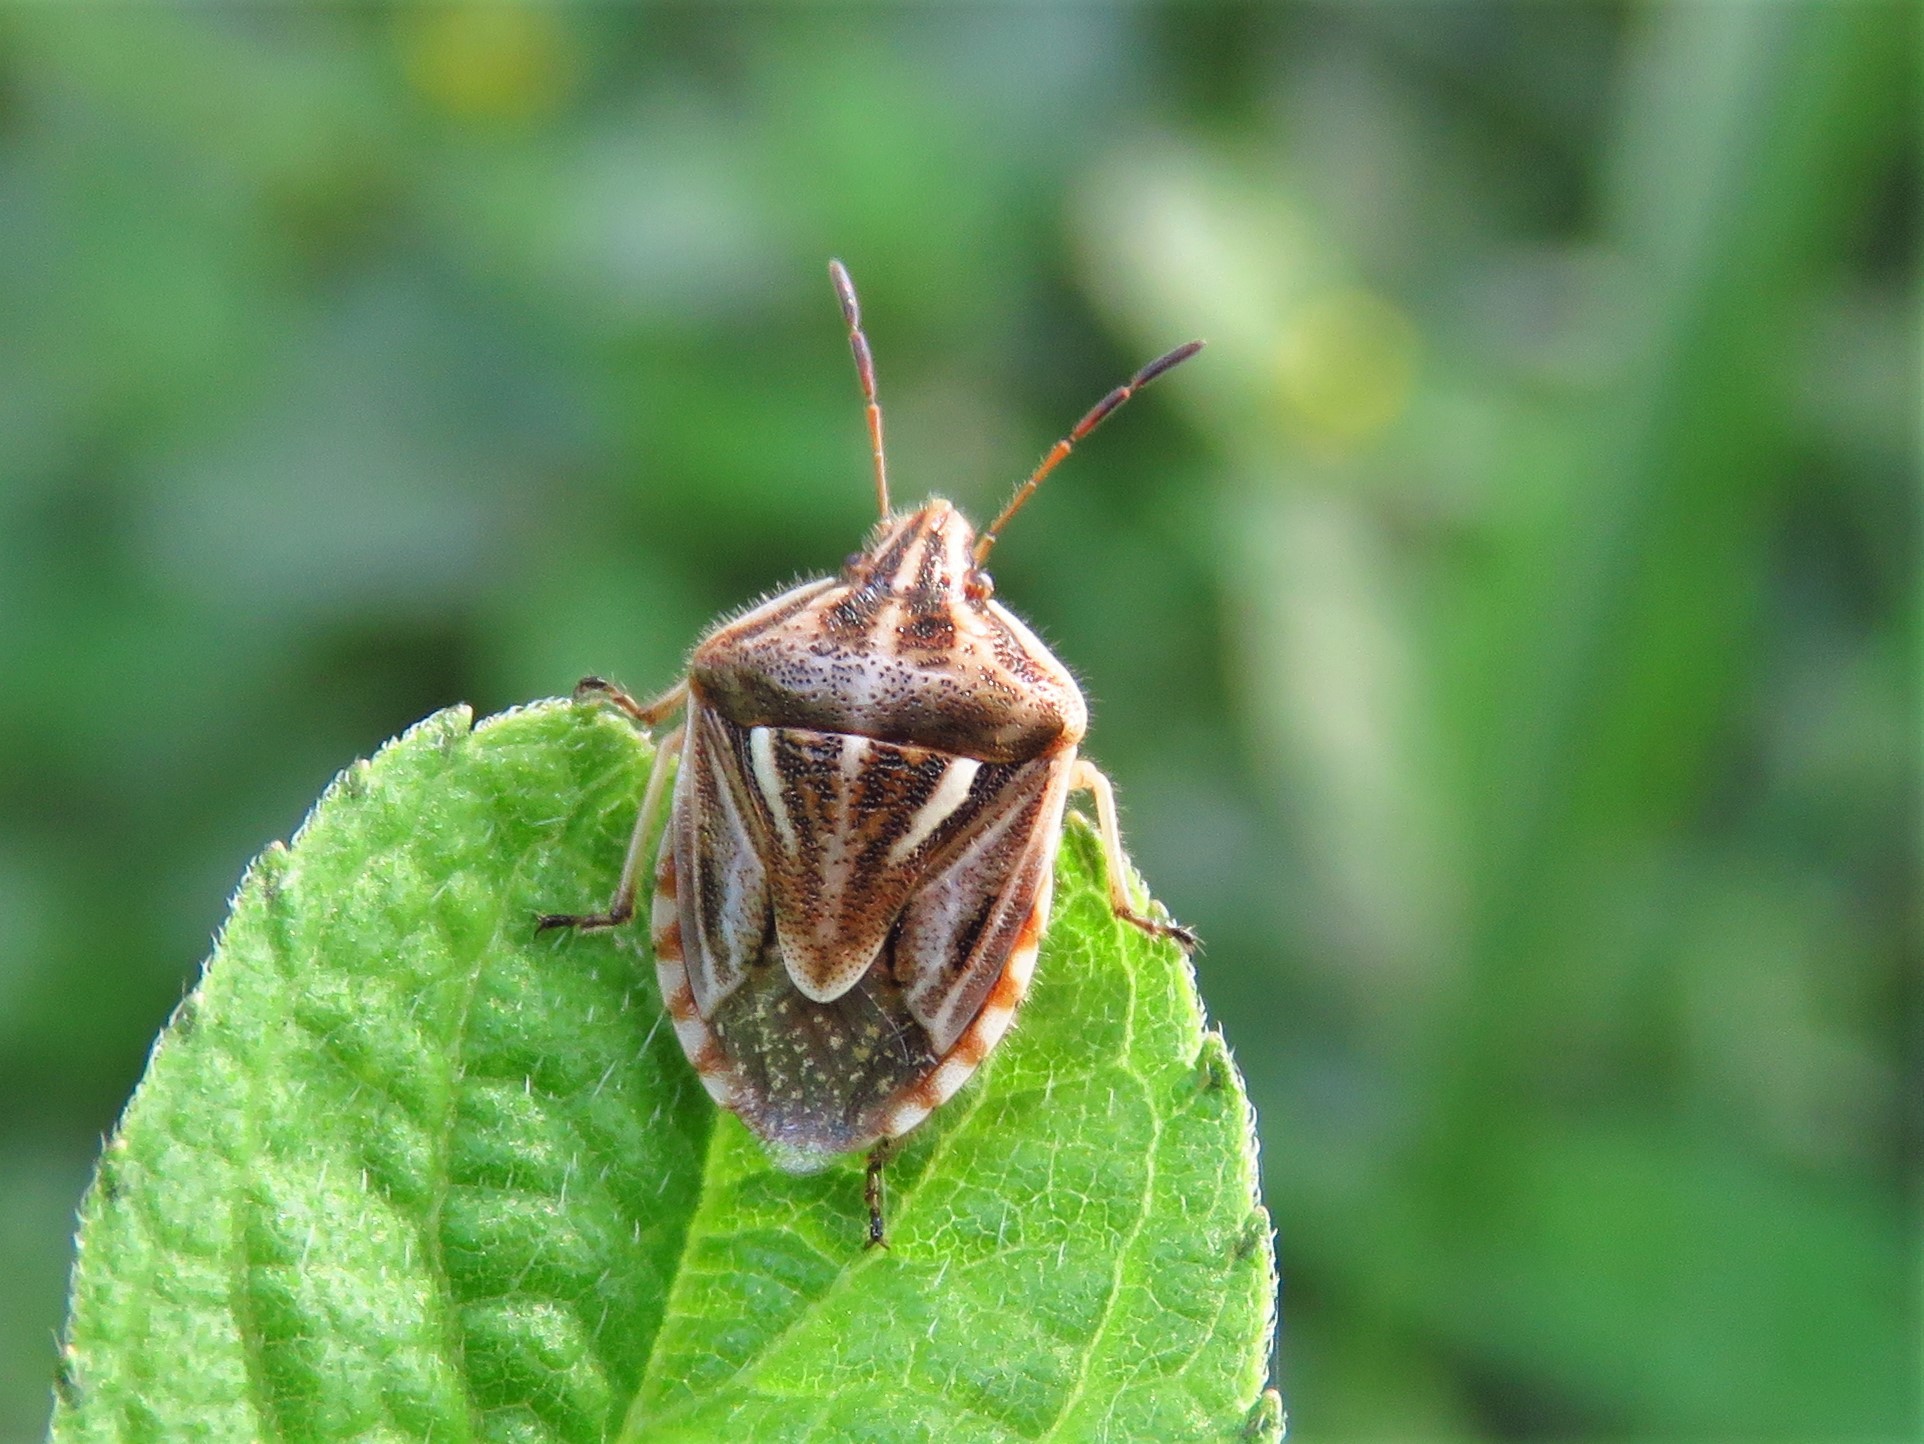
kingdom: Animalia
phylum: Arthropoda
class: Insecta
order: Hemiptera
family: Pentatomidae
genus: Trichopepla
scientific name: Trichopepla semivittata
